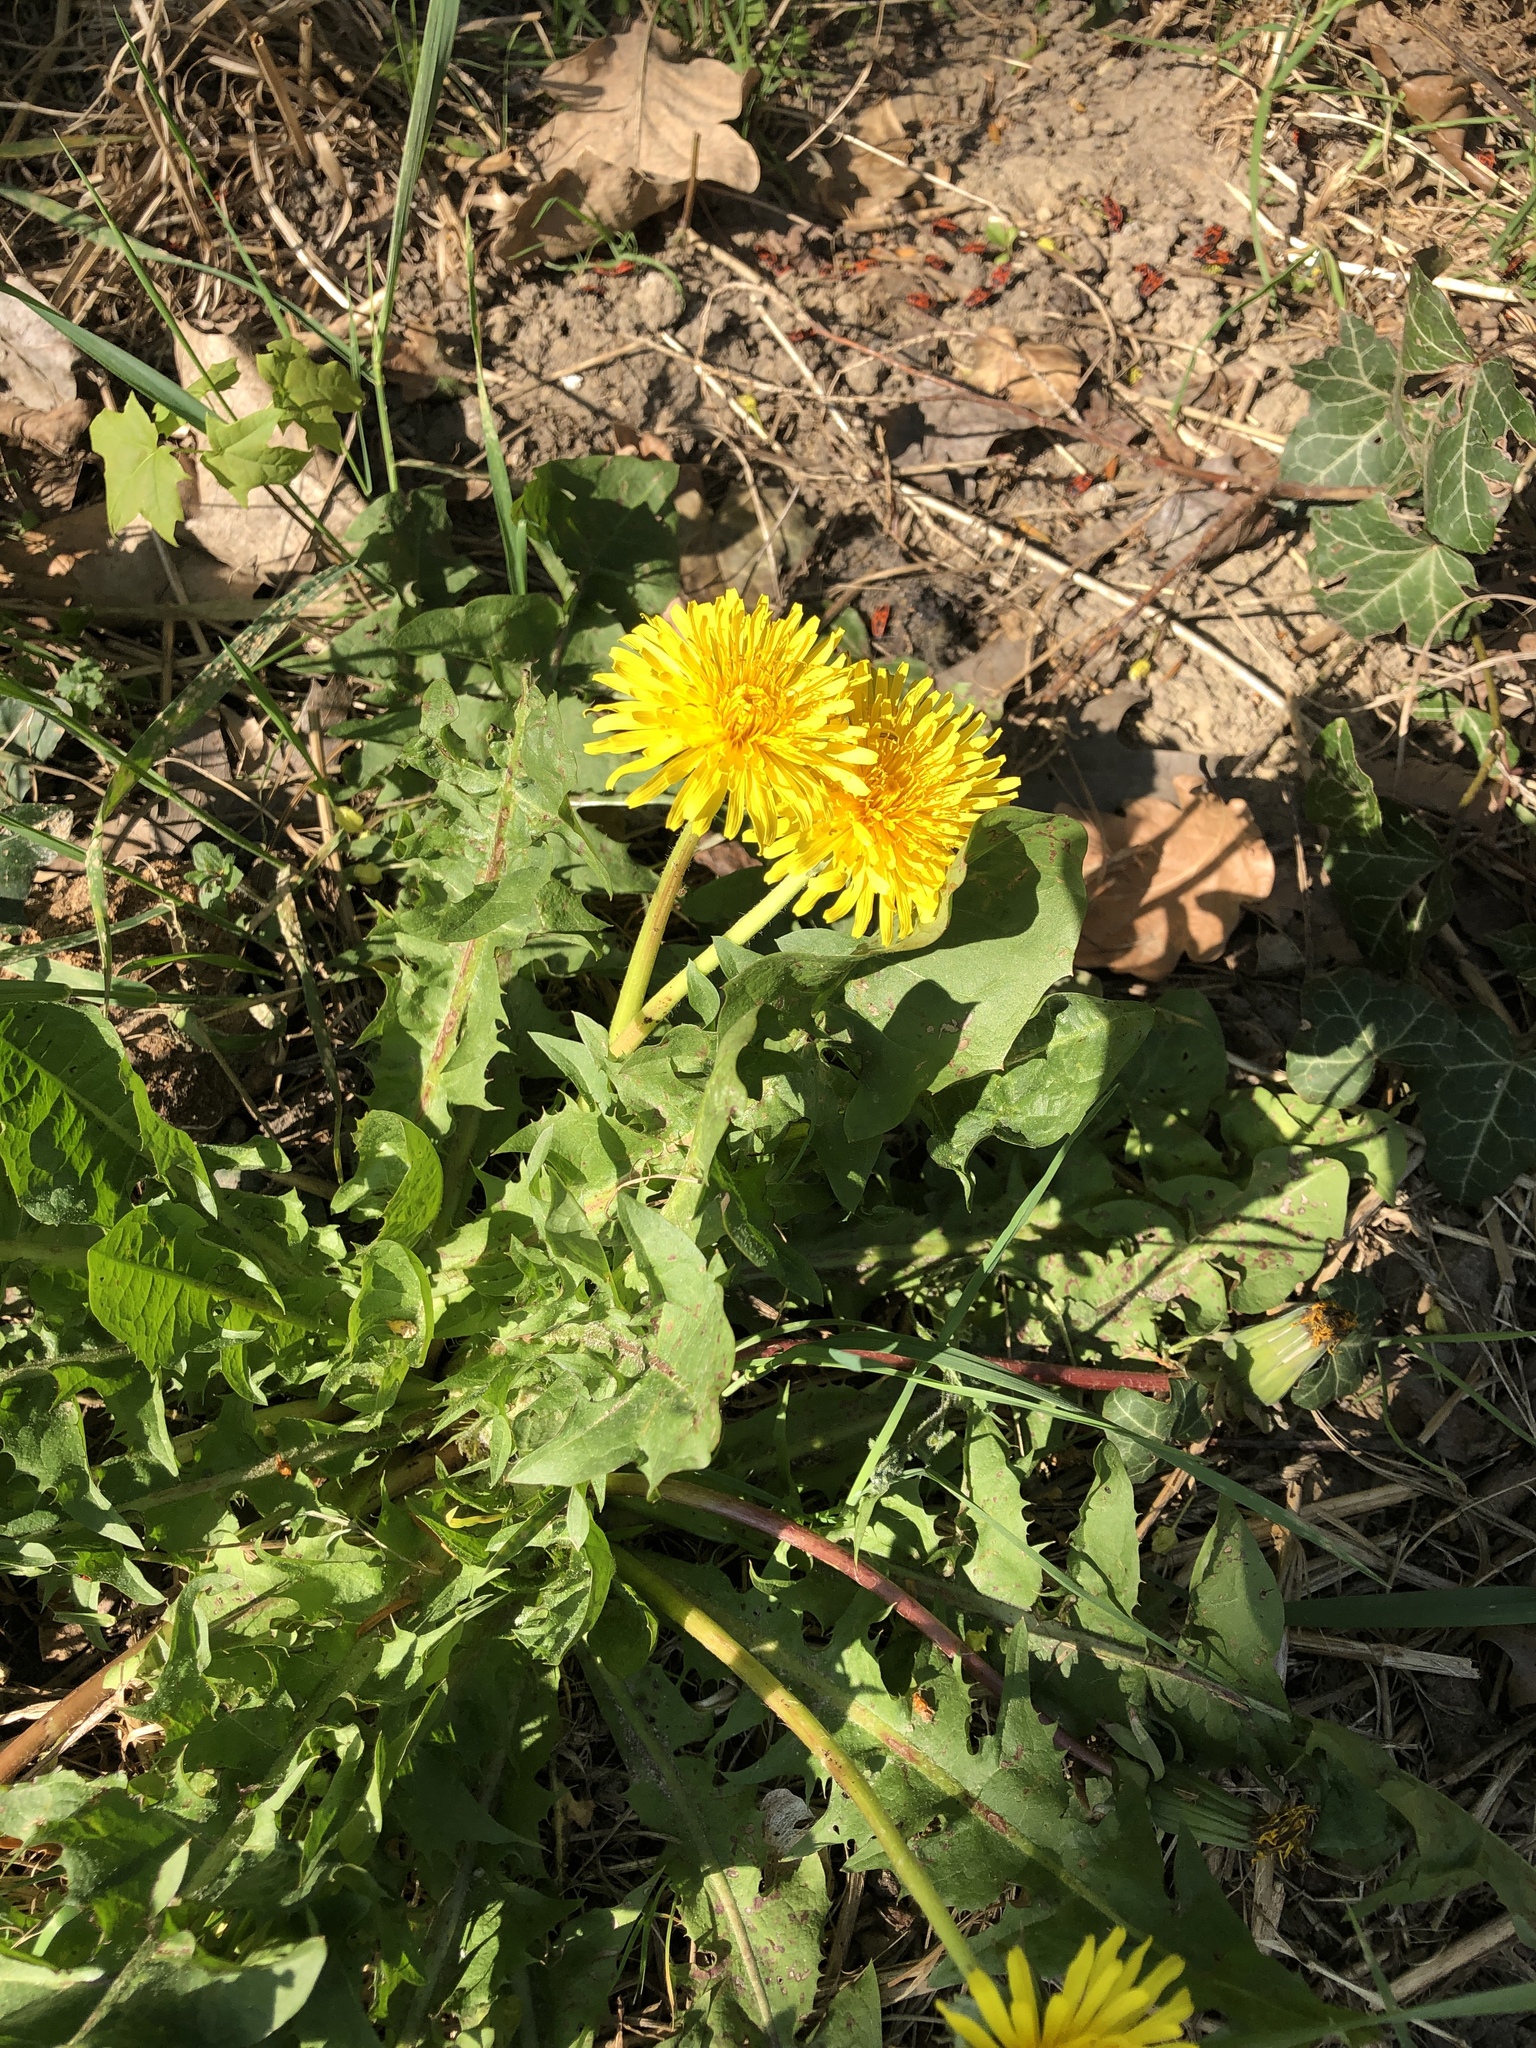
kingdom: Plantae
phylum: Tracheophyta
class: Magnoliopsida
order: Asterales
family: Asteraceae
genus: Taraxacum
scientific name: Taraxacum officinale
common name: Common dandelion
